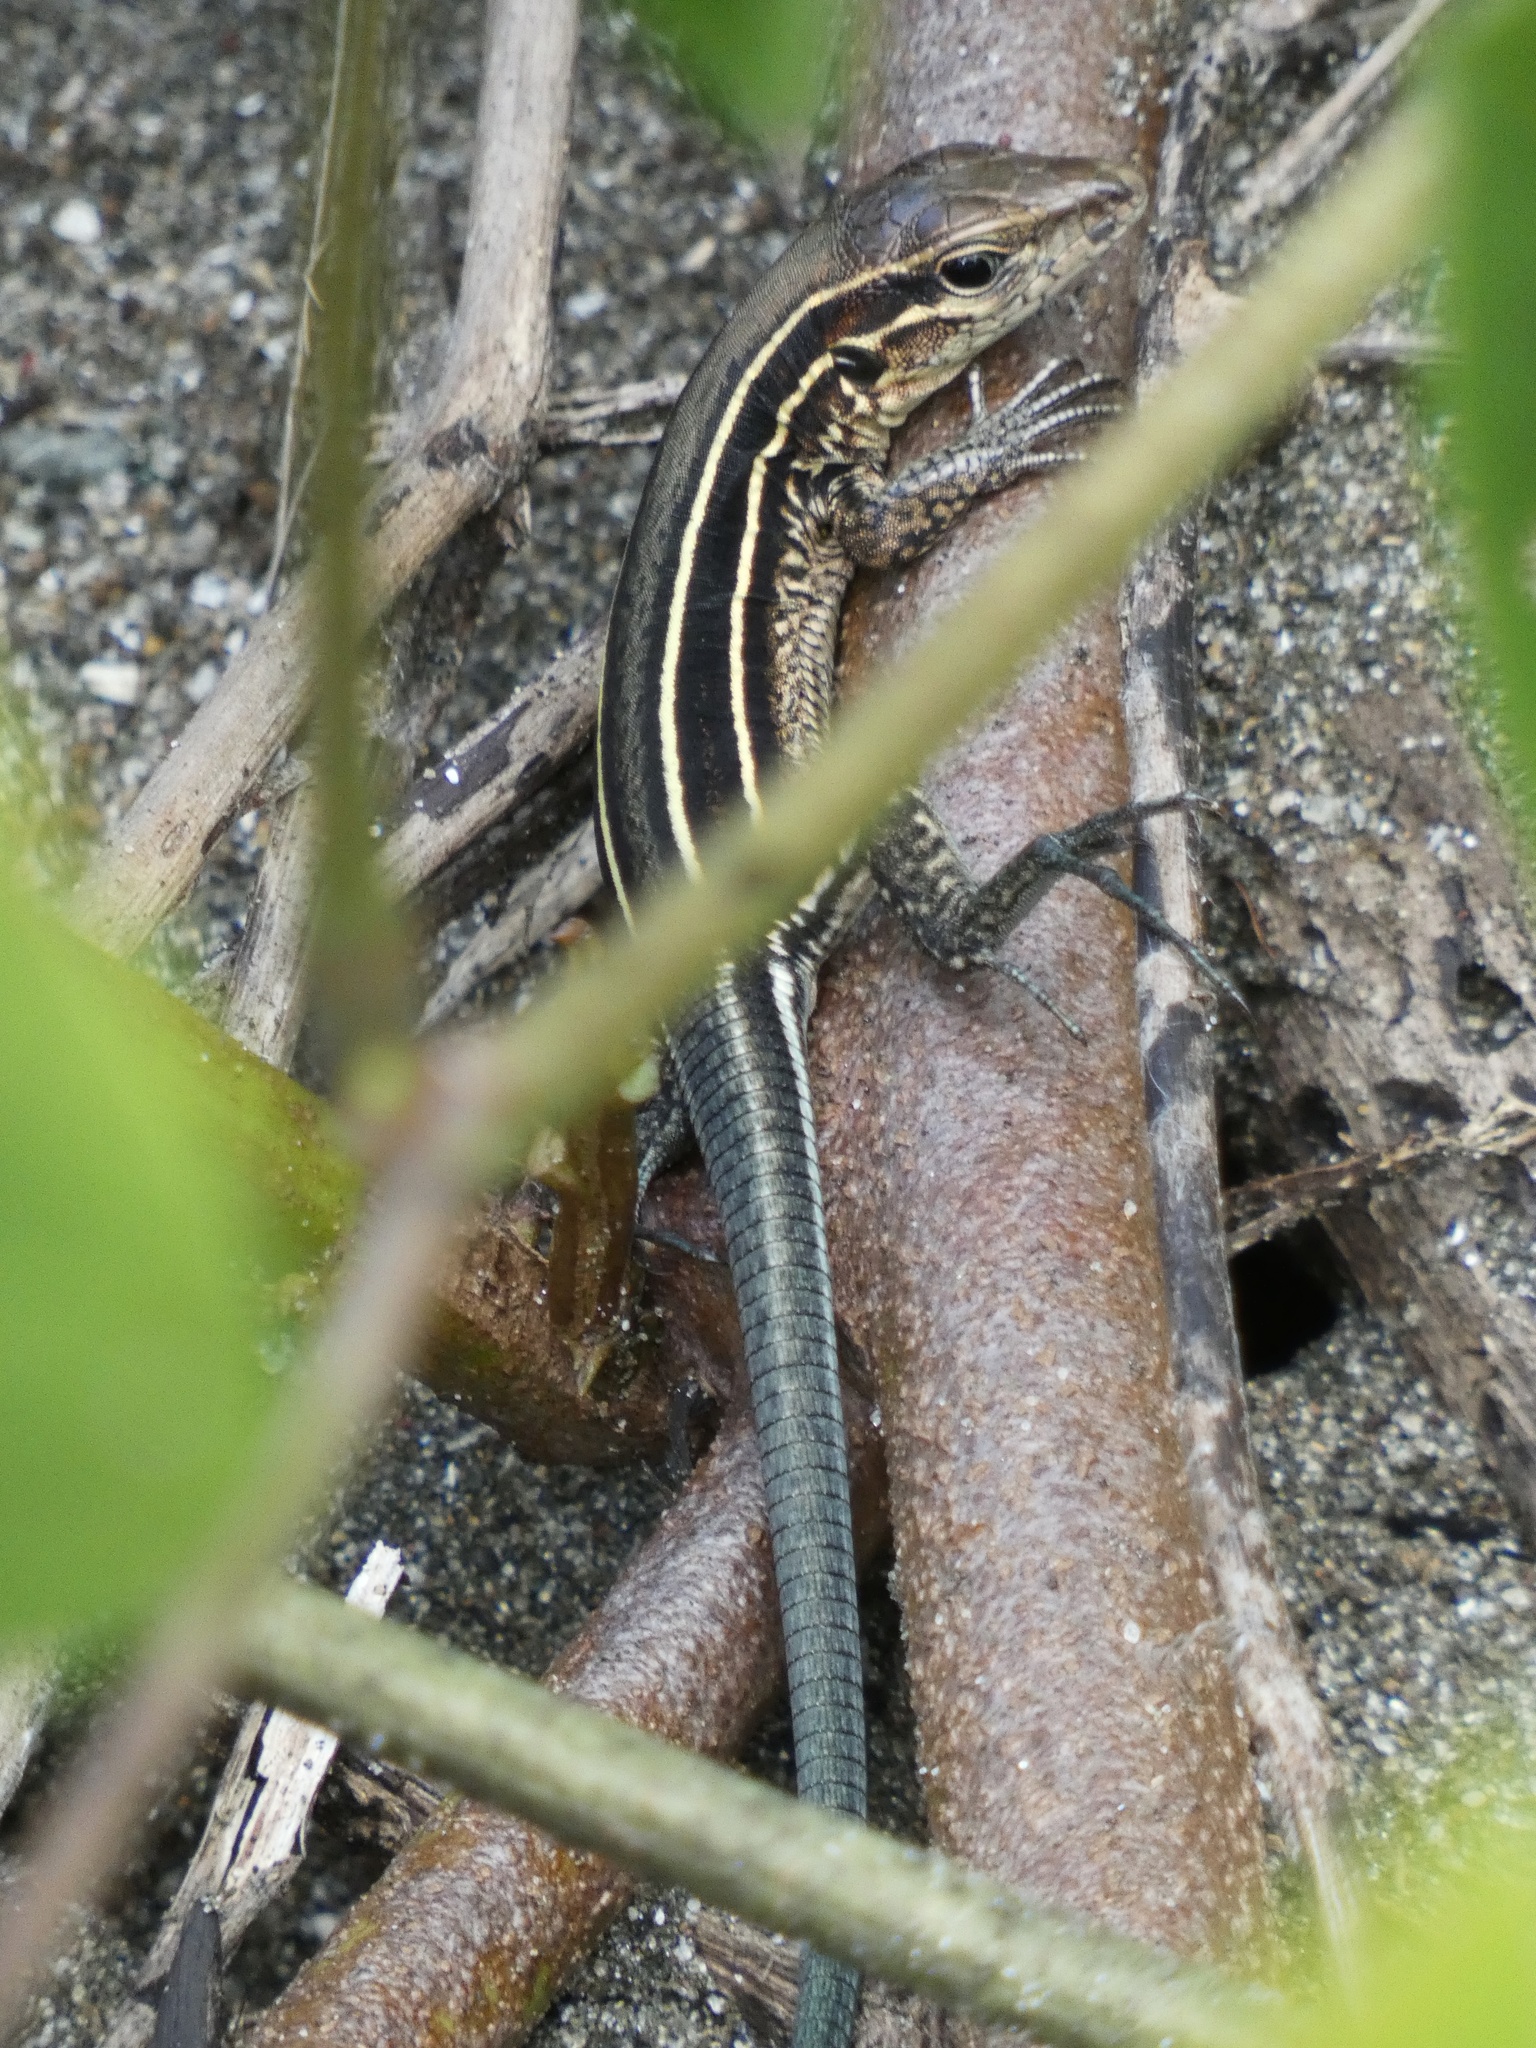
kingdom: Animalia
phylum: Chordata
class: Squamata
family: Teiidae
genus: Holcosus
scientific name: Holcosus quadrilineatus
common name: Four-lined ameiva
